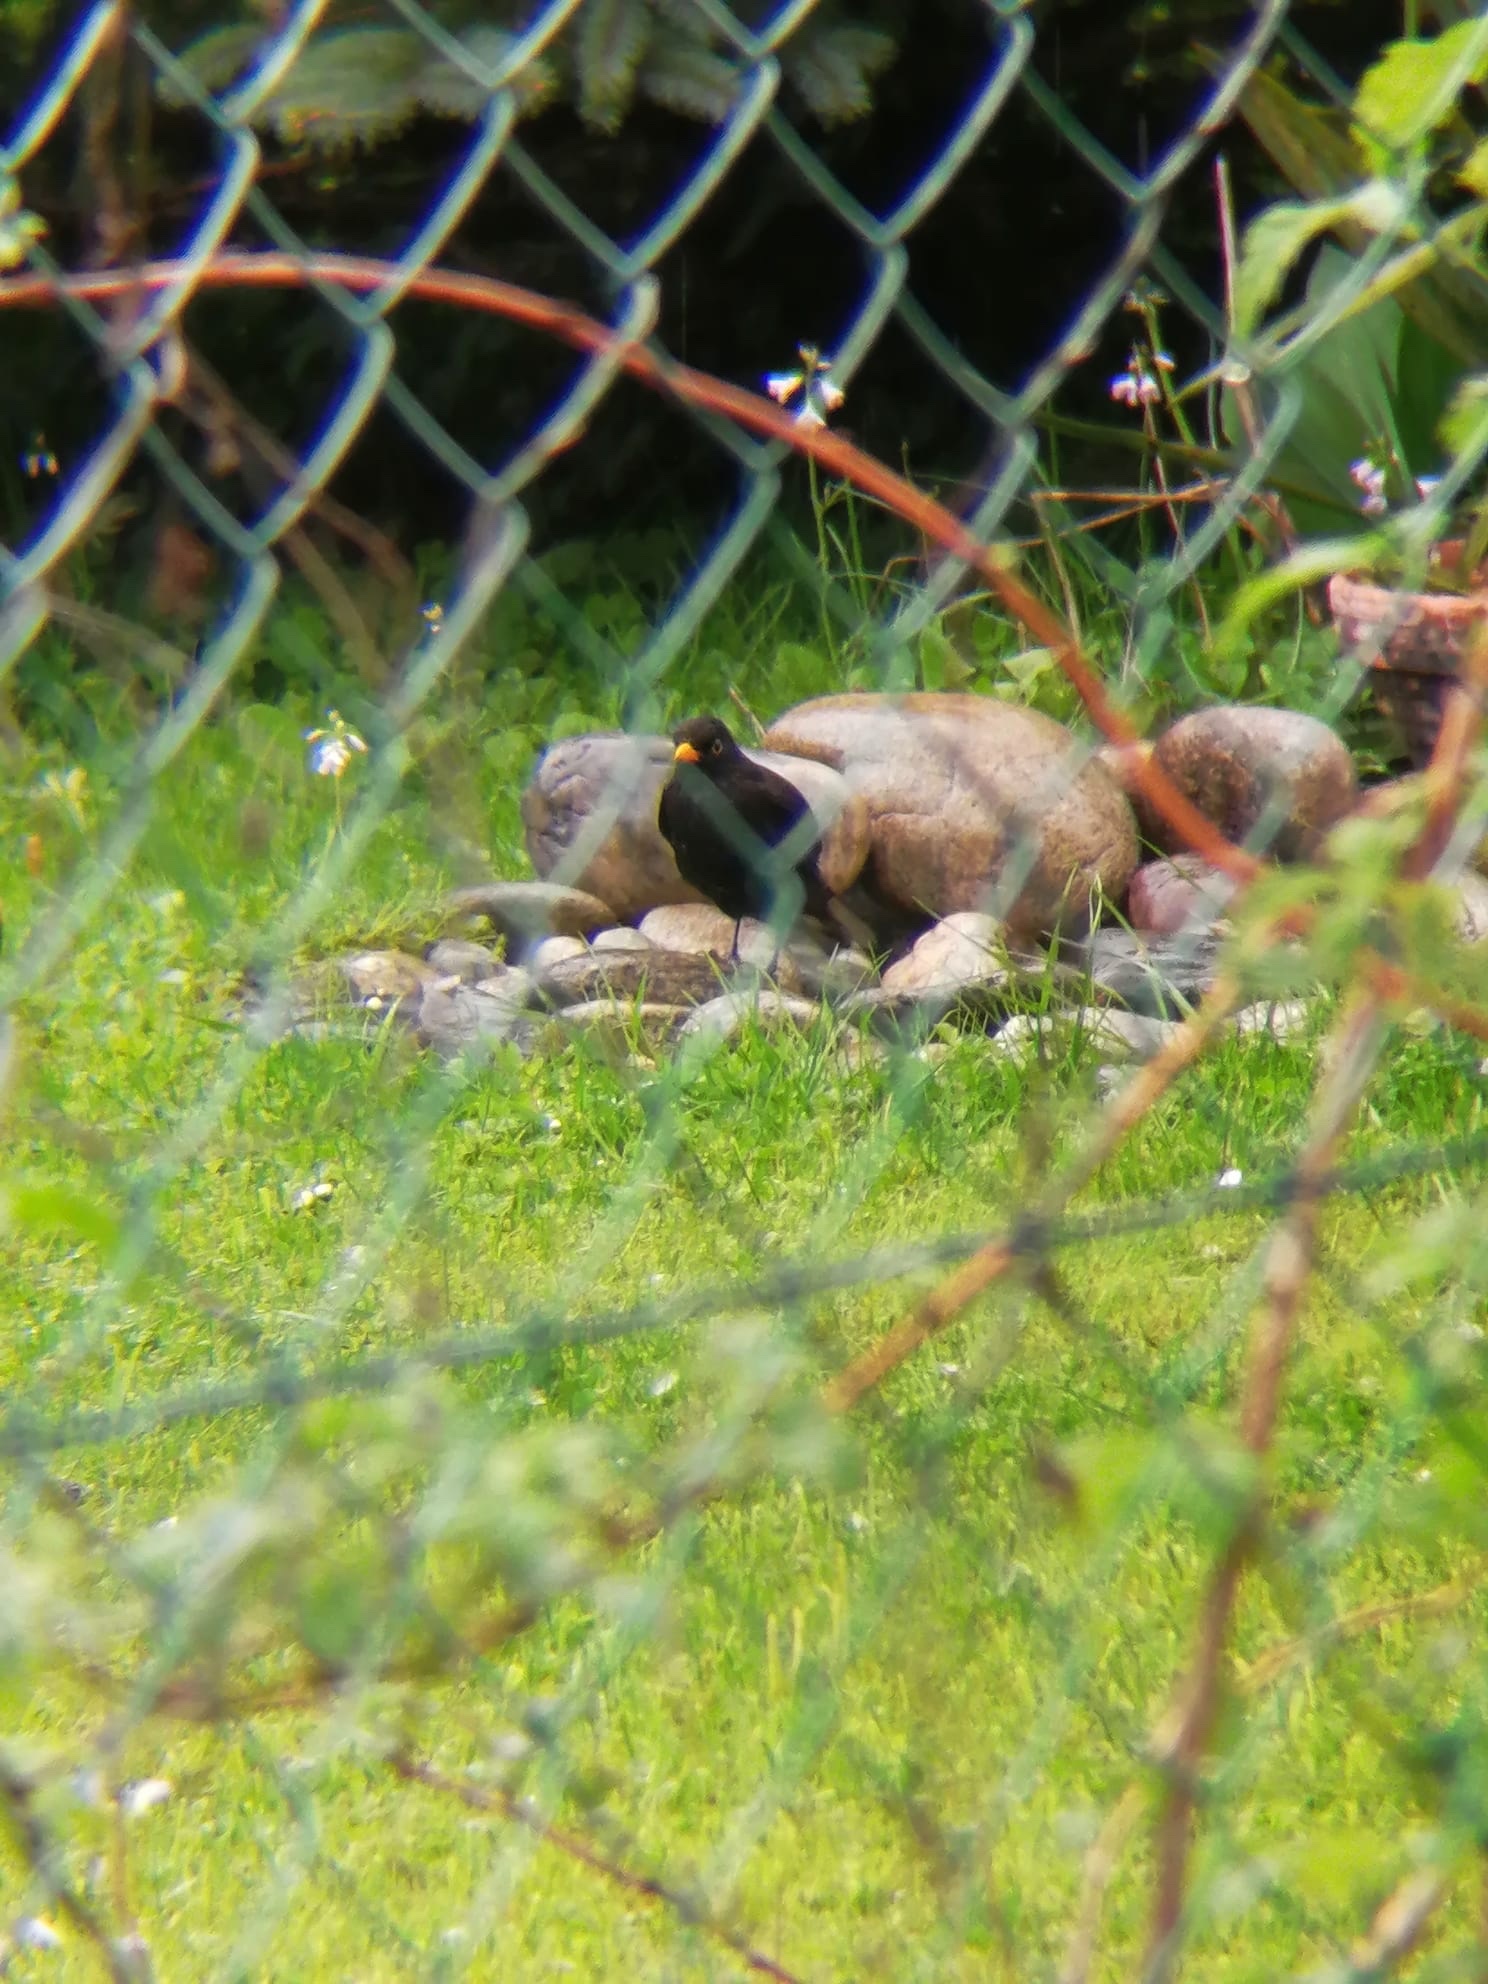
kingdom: Animalia
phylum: Chordata
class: Aves
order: Passeriformes
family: Turdidae
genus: Turdus
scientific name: Turdus merula
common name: Common blackbird
